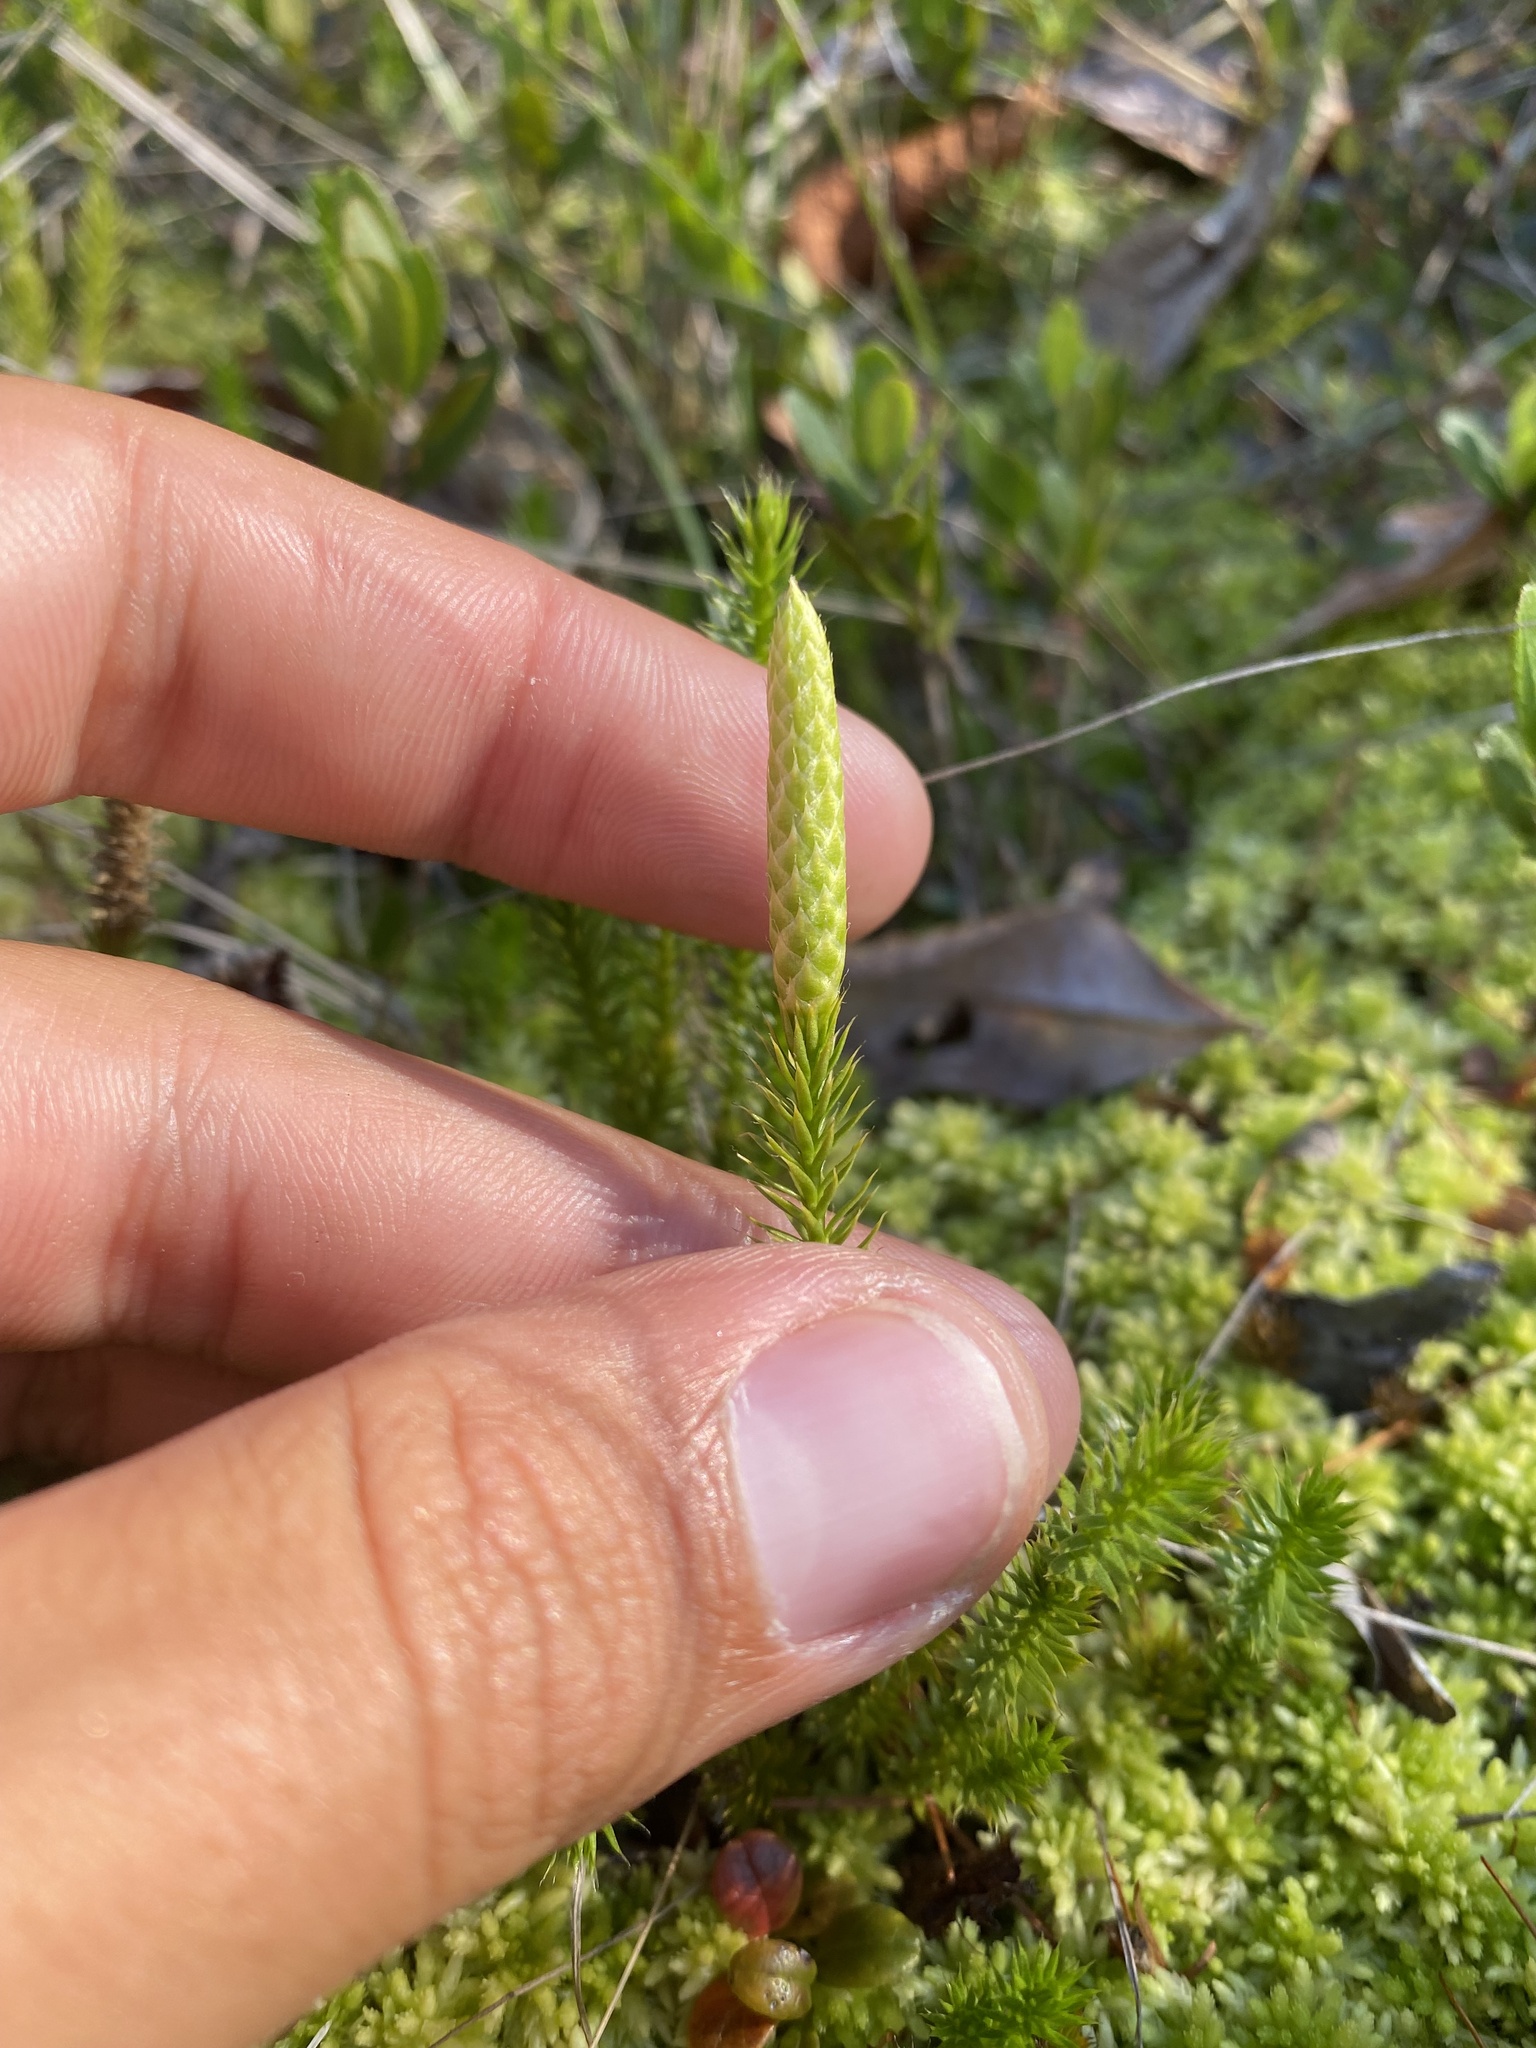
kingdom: Plantae
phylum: Tracheophyta
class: Lycopodiopsida
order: Lycopodiales
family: Lycopodiaceae
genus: Spinulum
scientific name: Spinulum annotinum
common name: Interrupted club-moss
